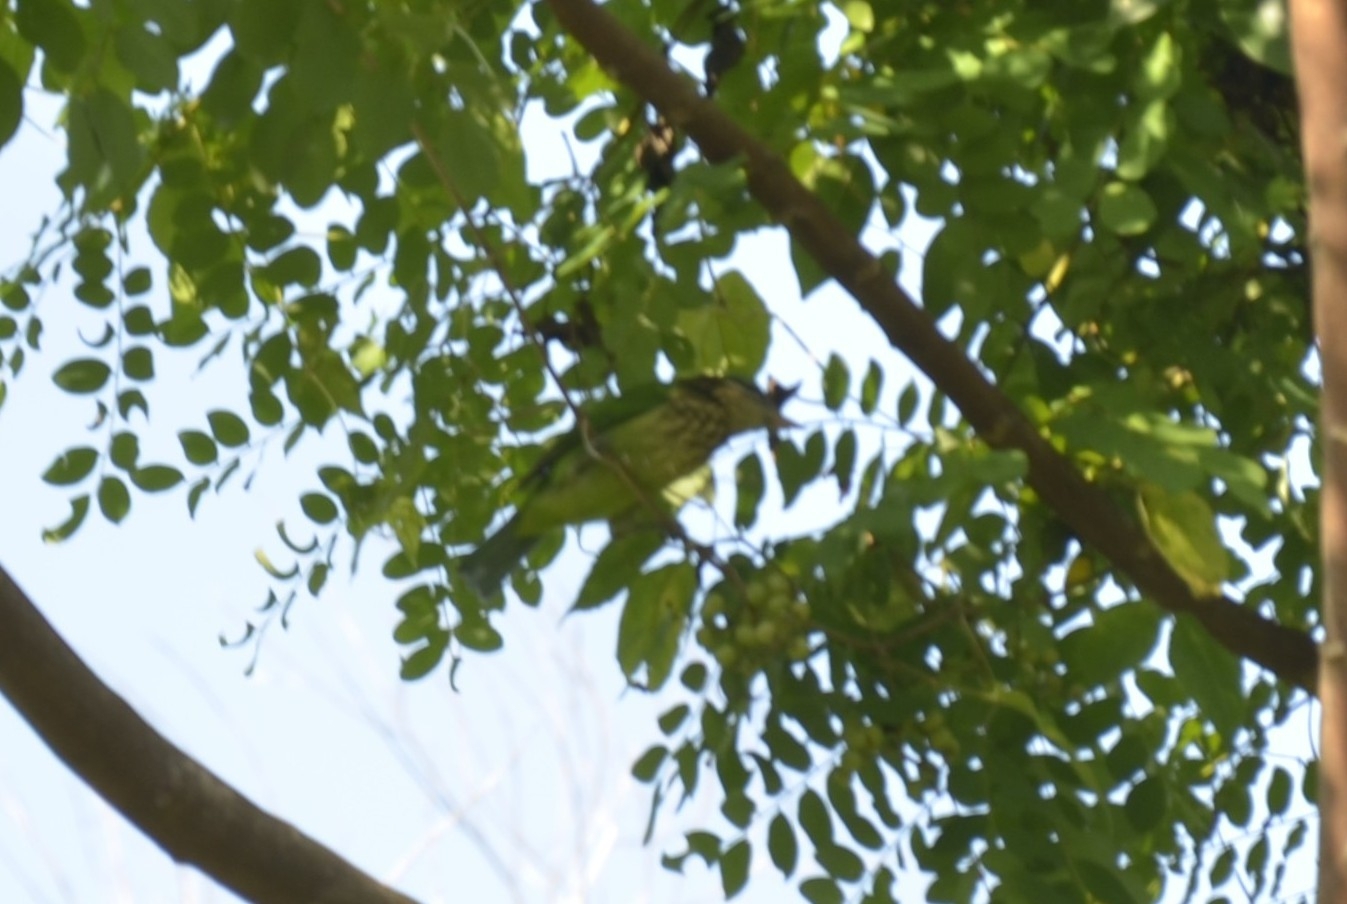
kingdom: Animalia
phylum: Chordata
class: Aves
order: Piciformes
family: Megalaimidae
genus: Psilopogon
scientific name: Psilopogon viridis
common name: White-cheeked barbet
